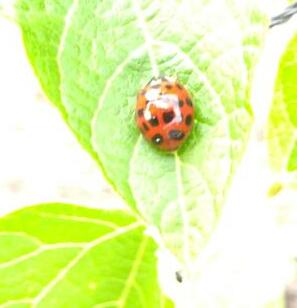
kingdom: Animalia
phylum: Arthropoda
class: Insecta
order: Coleoptera
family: Coccinellidae
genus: Harmonia
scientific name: Harmonia axyridis
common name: Harlequin ladybird
